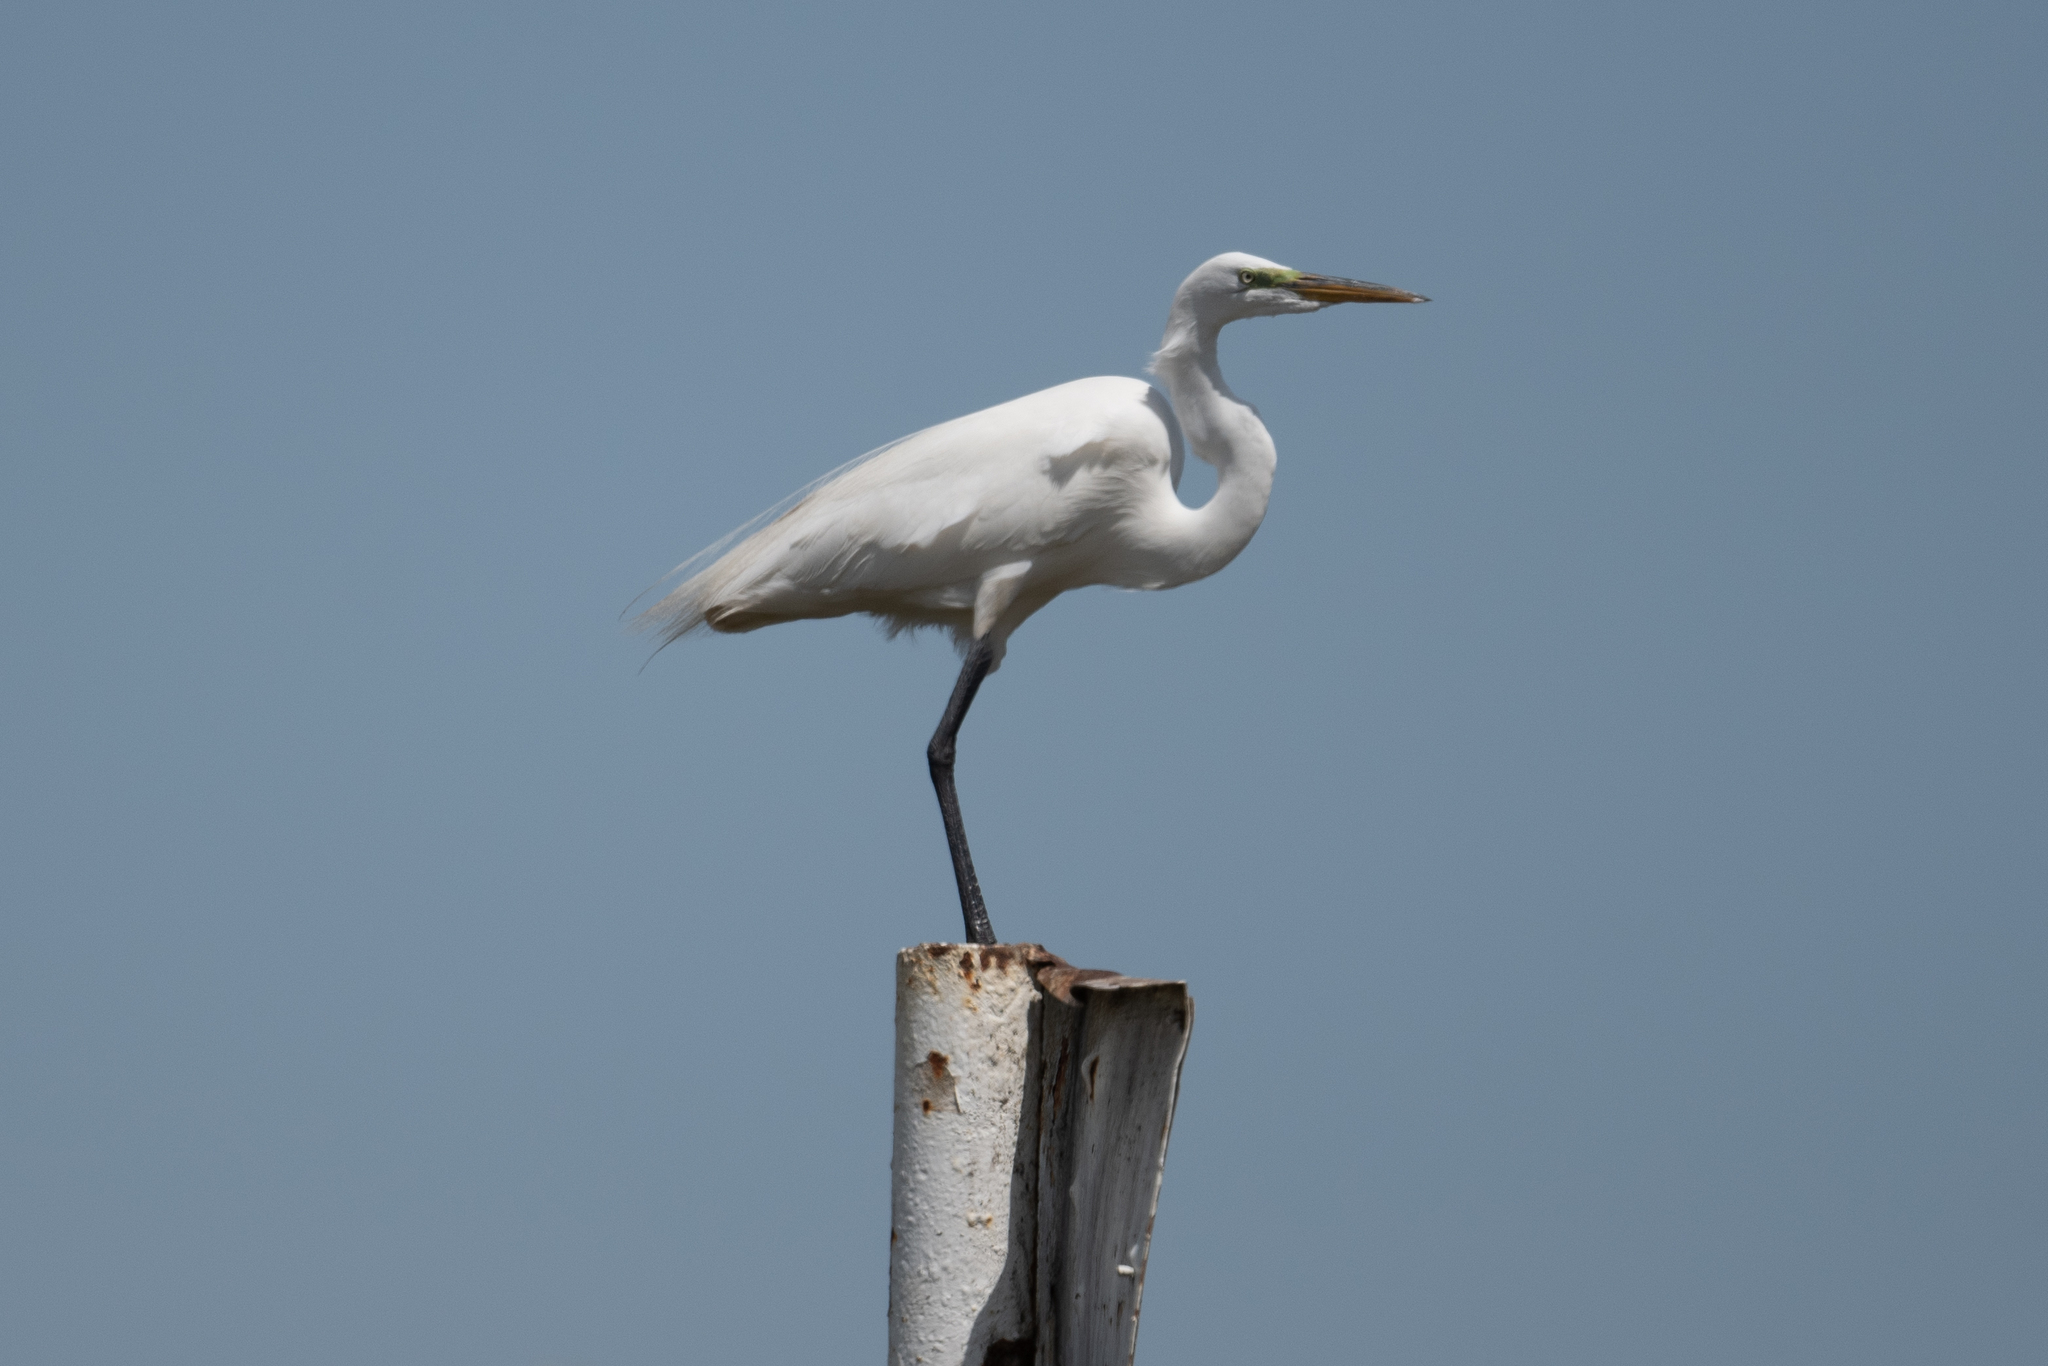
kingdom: Animalia
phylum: Chordata
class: Aves
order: Pelecaniformes
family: Ardeidae
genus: Ardea
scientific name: Ardea alba
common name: Great egret
